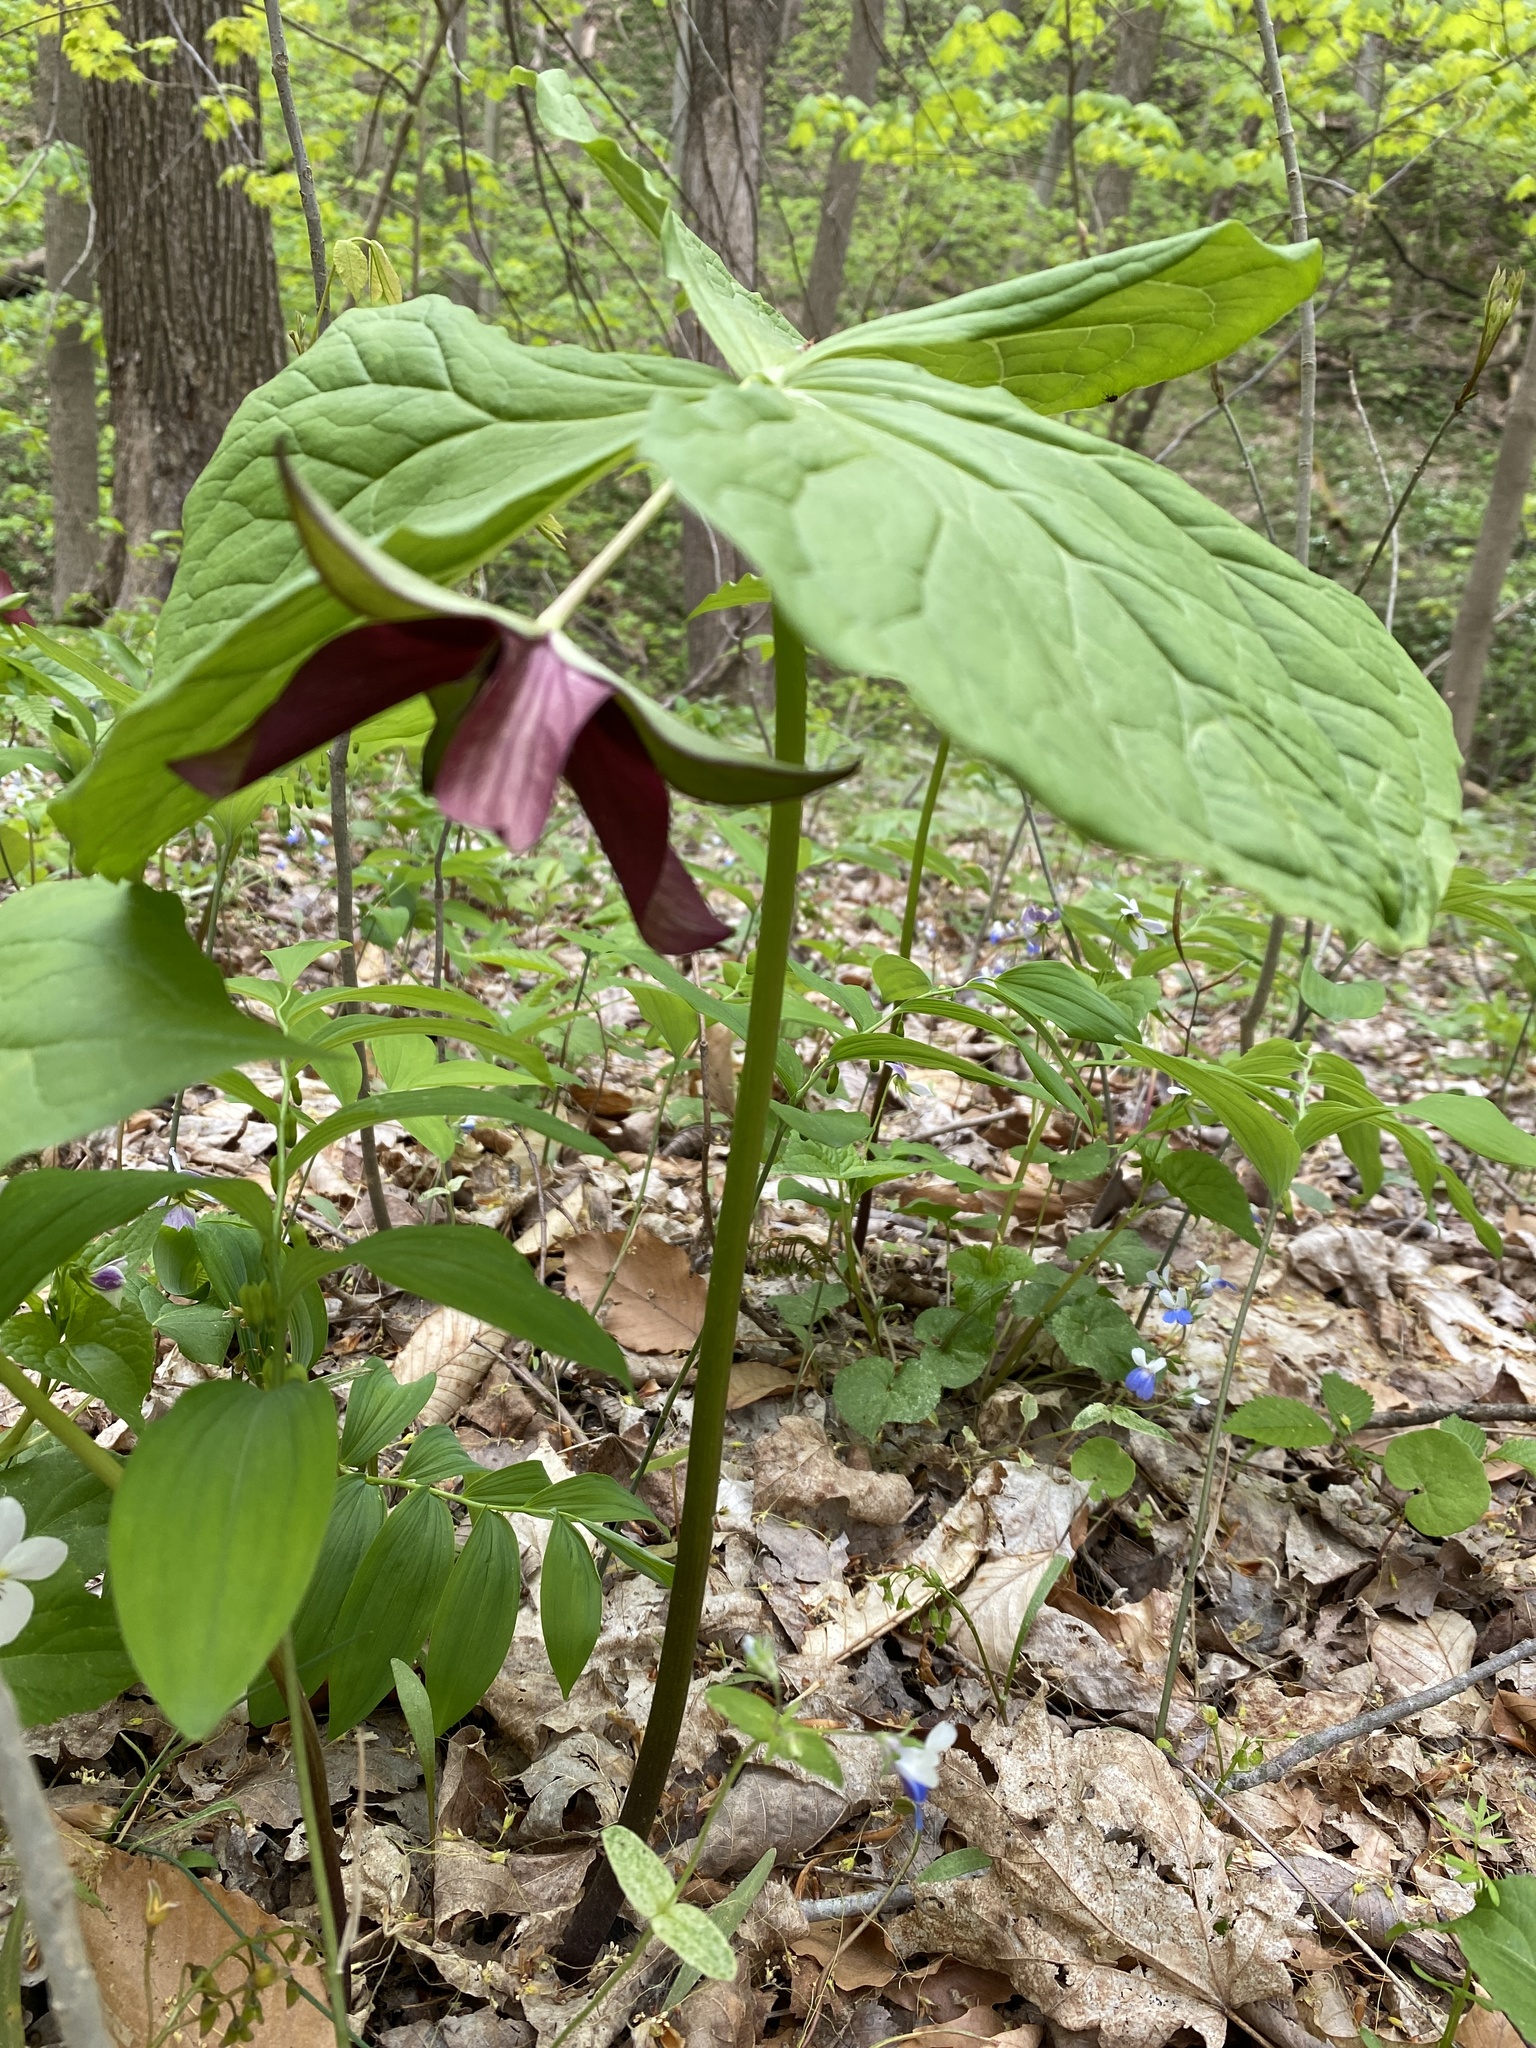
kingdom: Plantae
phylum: Tracheophyta
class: Liliopsida
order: Liliales
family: Melanthiaceae
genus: Trillium
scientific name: Trillium erectum
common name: Purple trillium
